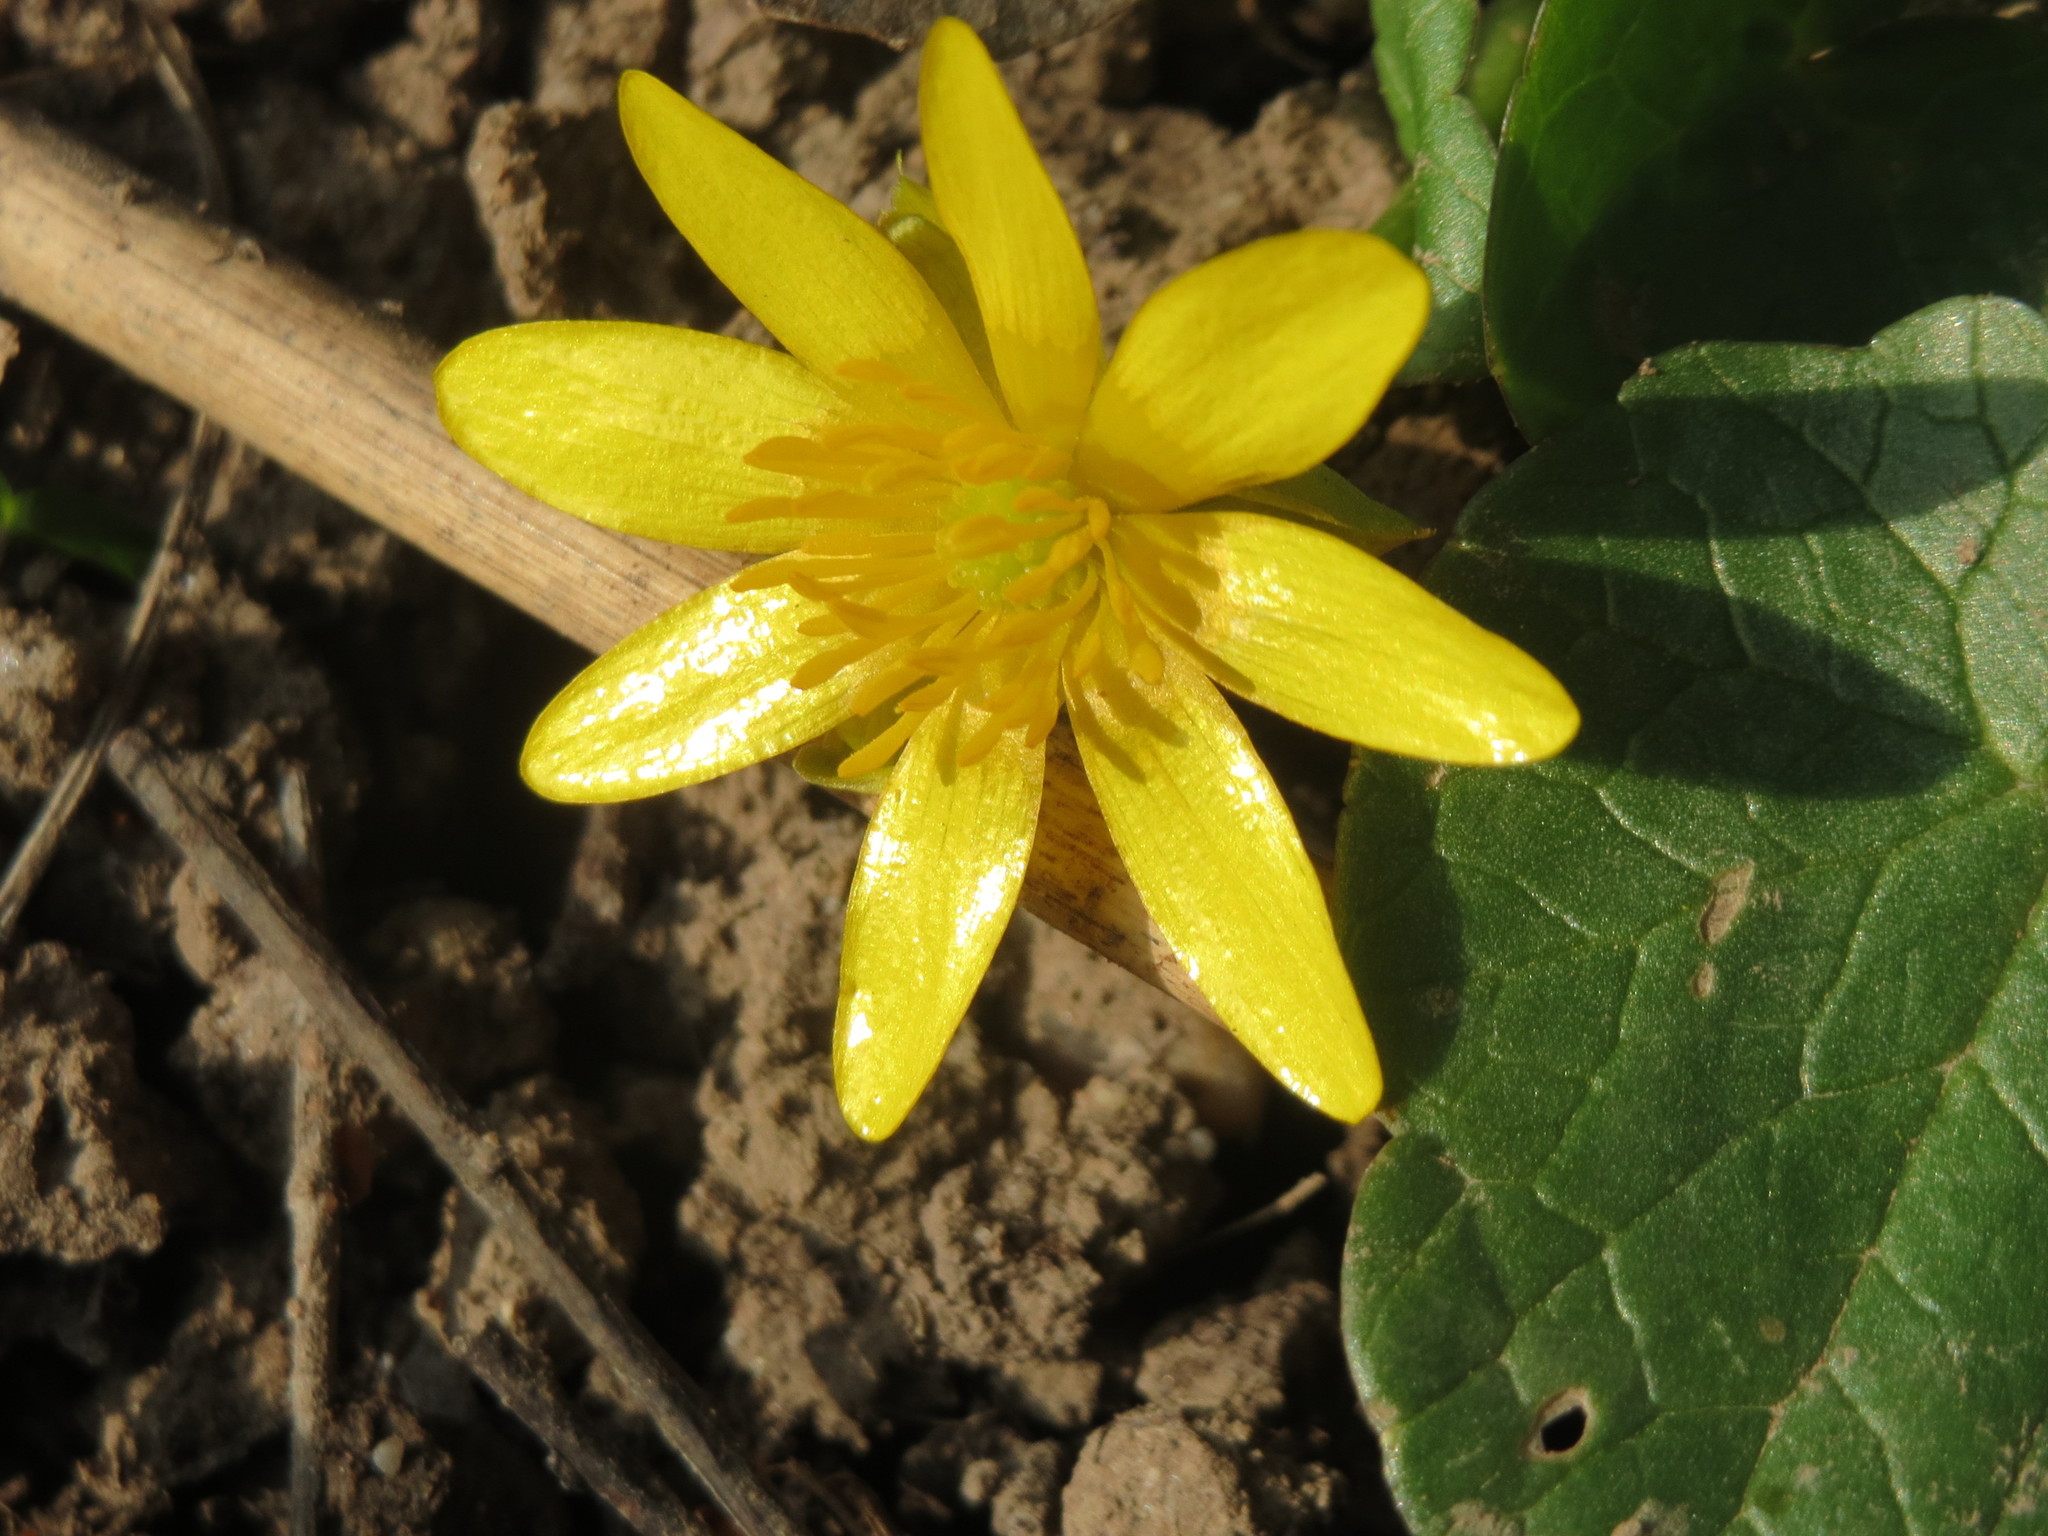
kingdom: Plantae
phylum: Tracheophyta
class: Magnoliopsida
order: Ranunculales
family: Ranunculaceae
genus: Ficaria
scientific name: Ficaria verna
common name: Lesser celandine
